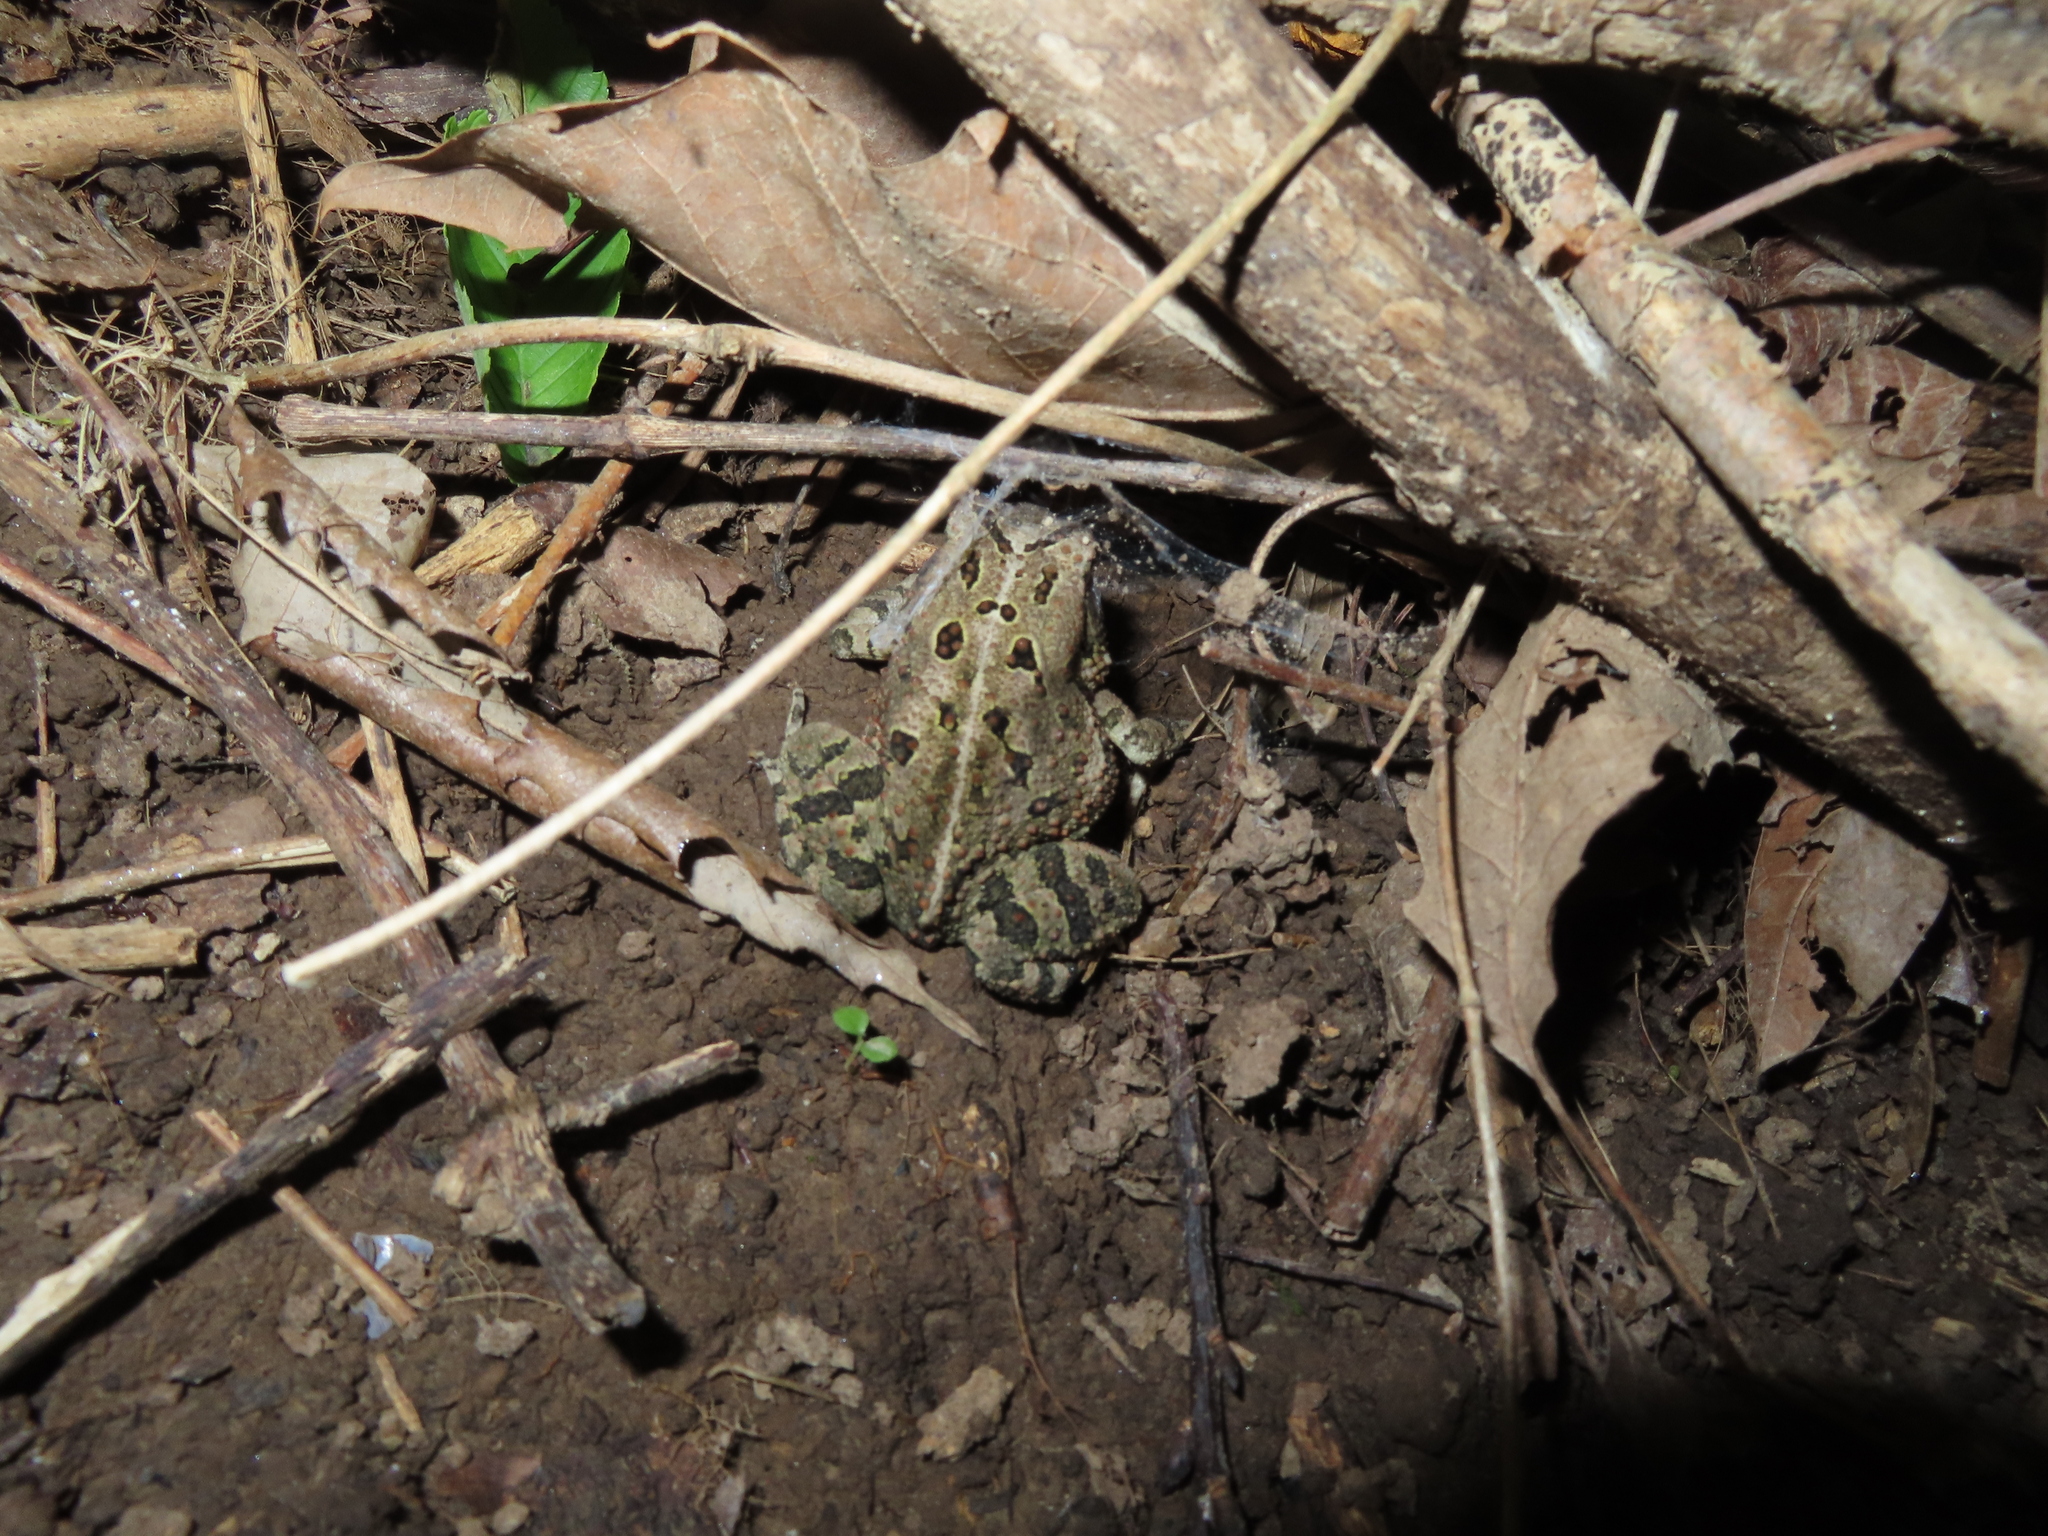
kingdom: Animalia
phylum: Chordata
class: Amphibia
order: Anura
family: Bufonidae
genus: Anaxyrus
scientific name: Anaxyrus fowleri
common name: Fowler's toad
